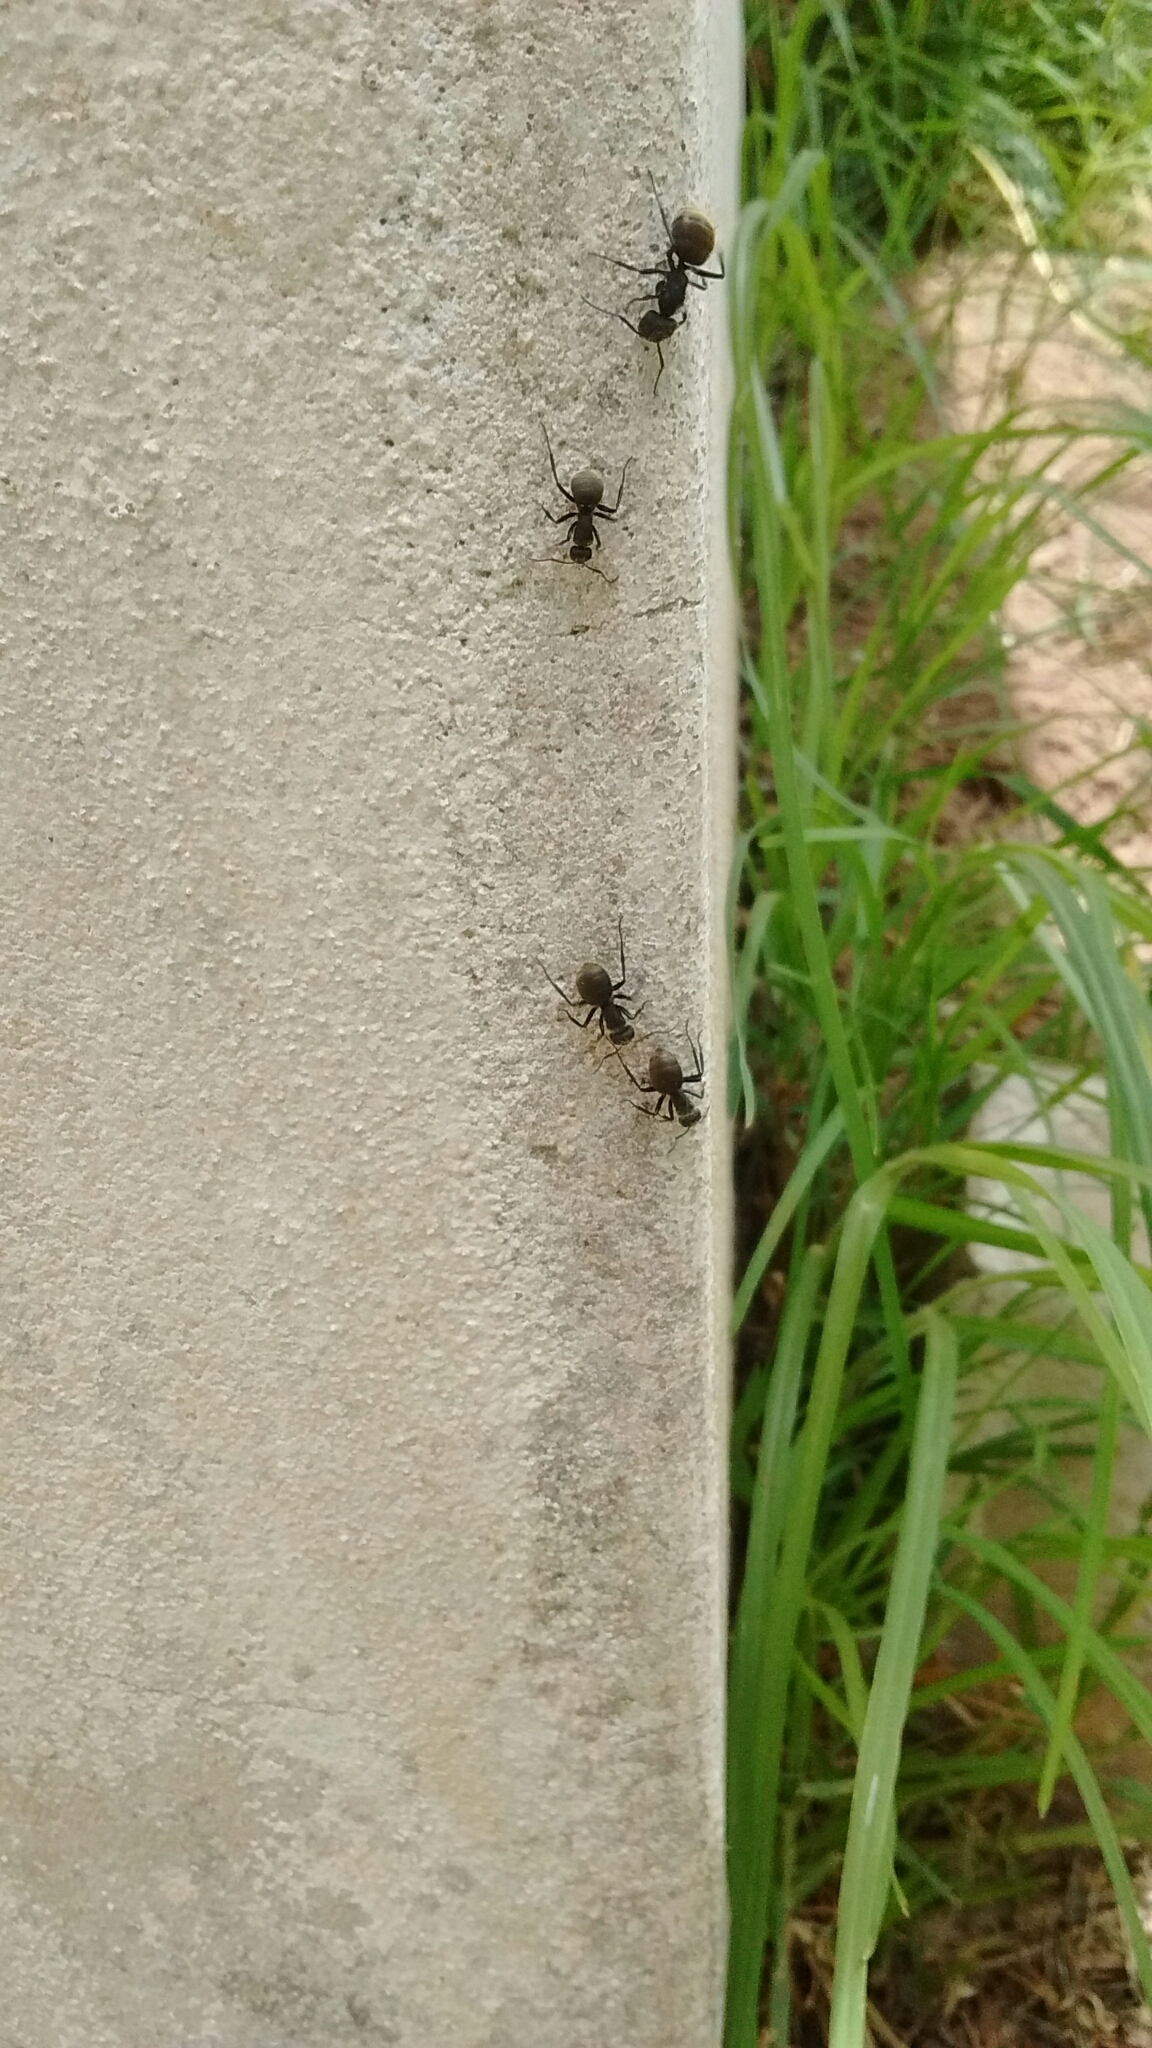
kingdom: Animalia
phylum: Arthropoda
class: Insecta
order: Hymenoptera
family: Formicidae
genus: Camponotus
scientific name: Camponotus mus
